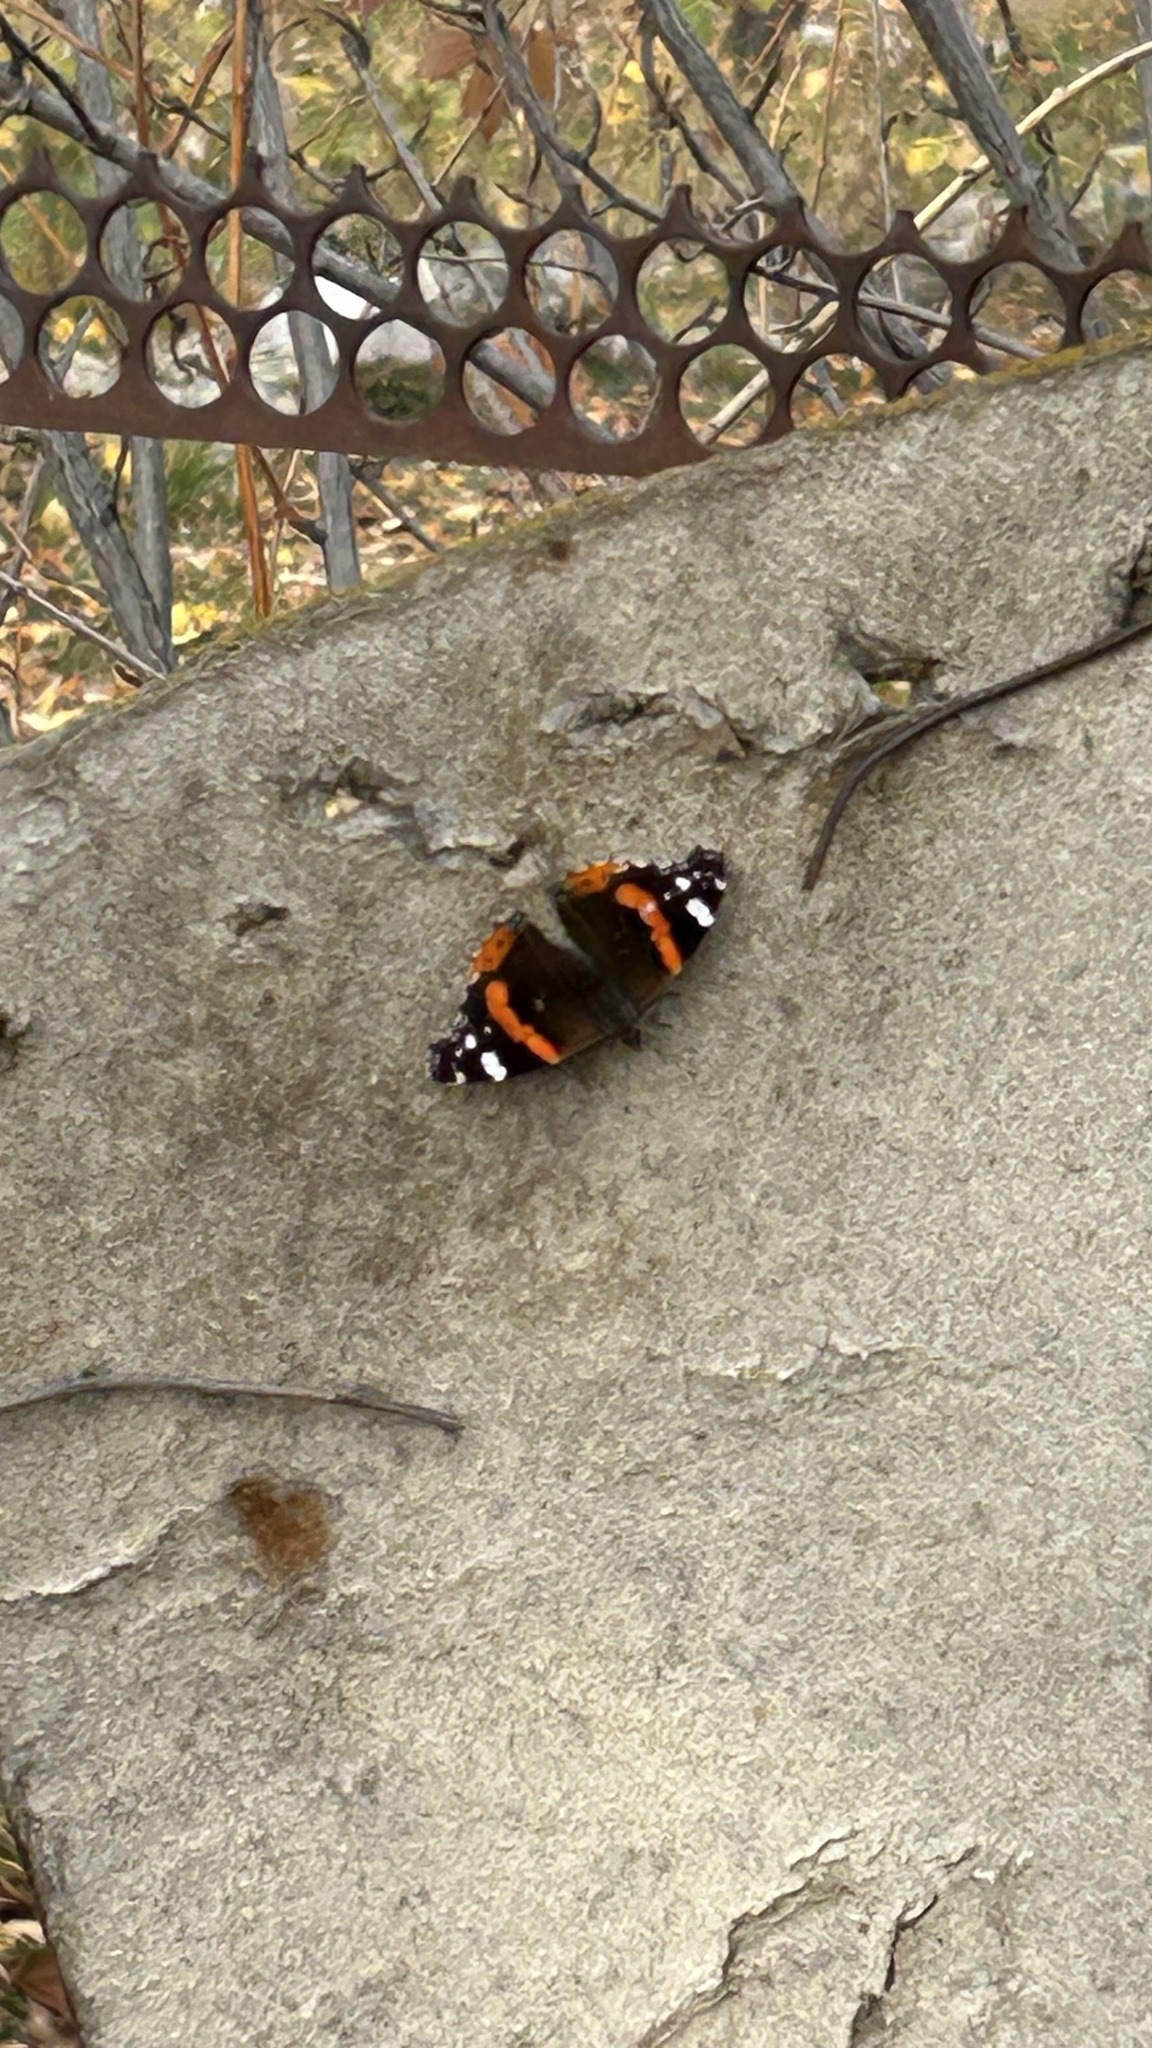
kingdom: Animalia
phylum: Arthropoda
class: Insecta
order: Lepidoptera
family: Nymphalidae
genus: Vanessa
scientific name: Vanessa atalanta
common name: Red admiral
